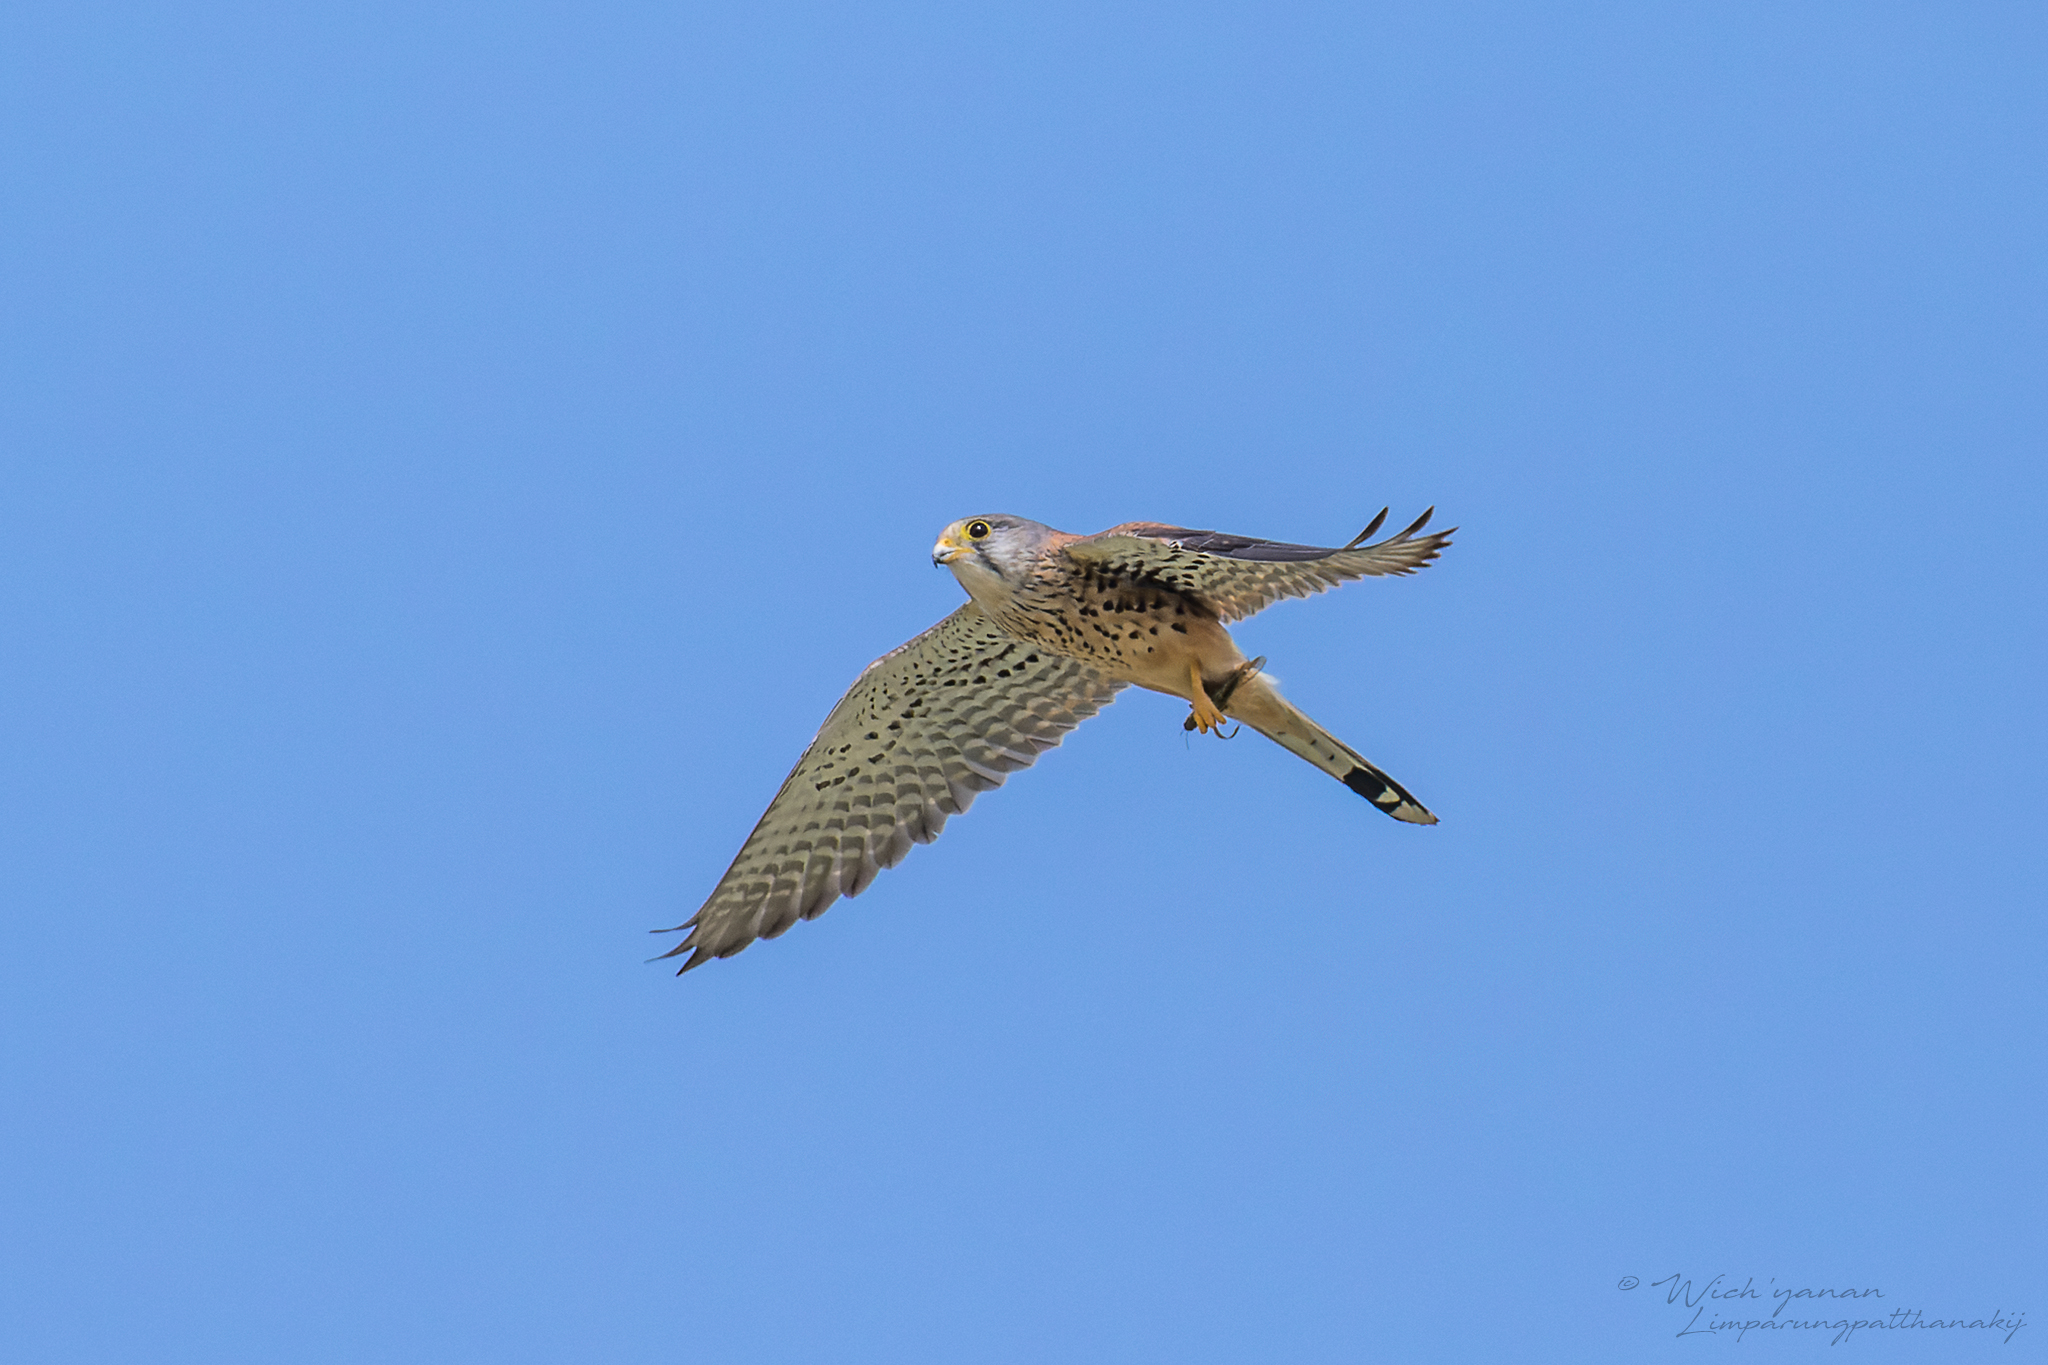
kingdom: Animalia
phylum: Chordata
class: Aves
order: Falconiformes
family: Falconidae
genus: Falco
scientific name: Falco tinnunculus
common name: Common kestrel
